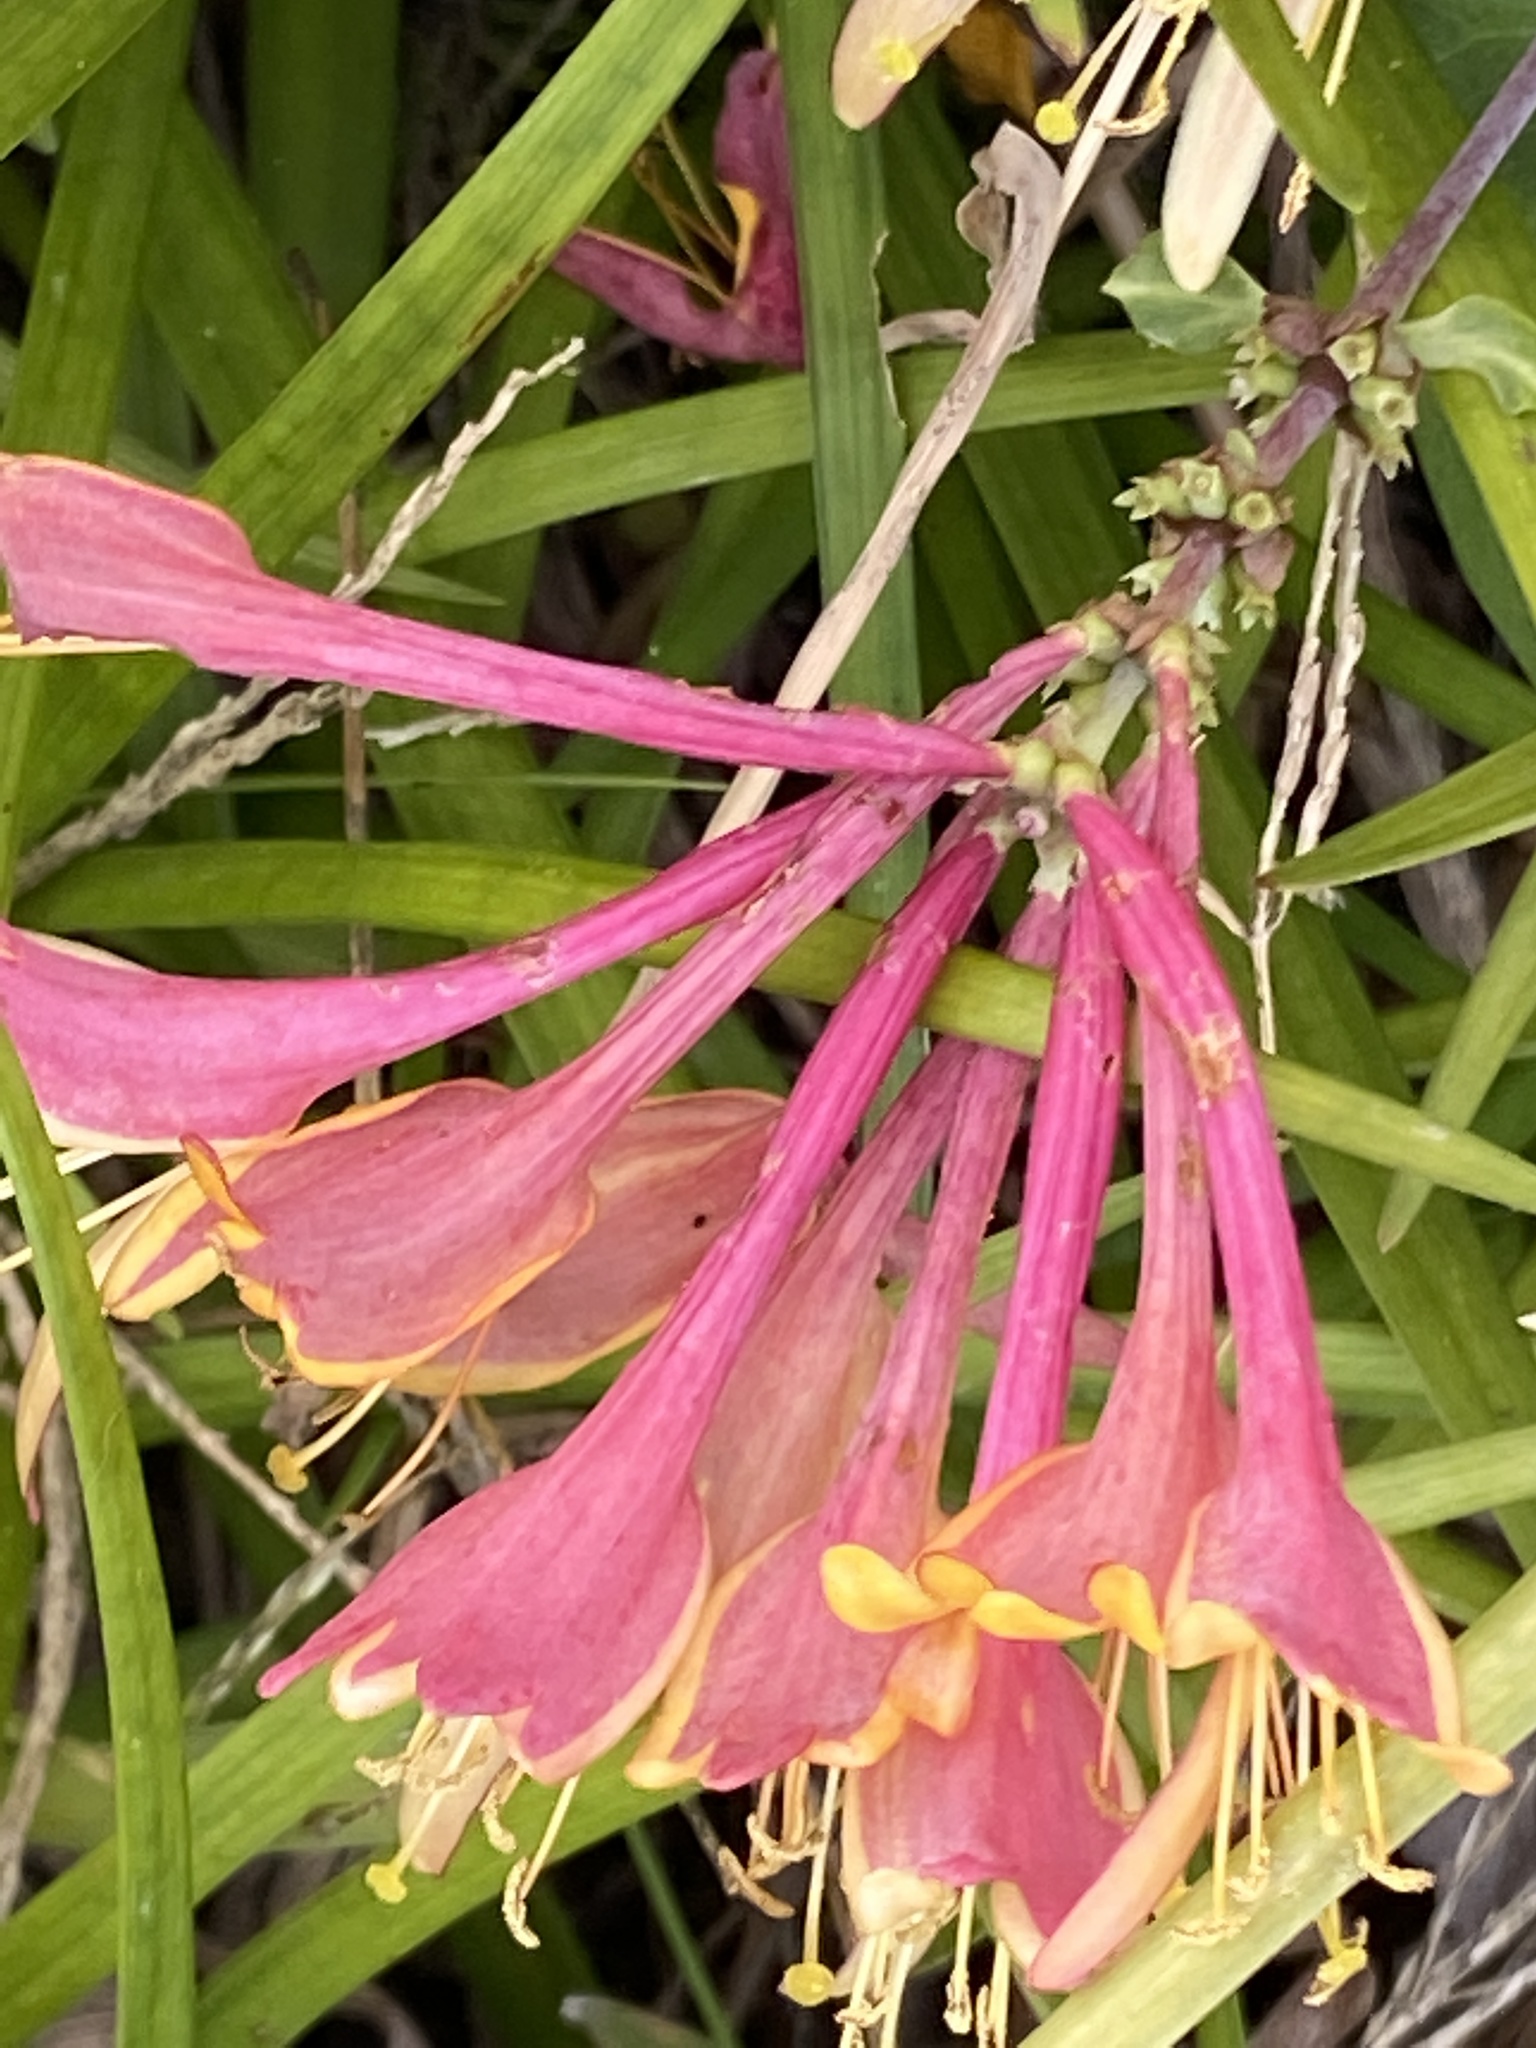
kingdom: Plantae
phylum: Tracheophyta
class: Magnoliopsida
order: Dipsacales
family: Caprifoliaceae
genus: Lonicera
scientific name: Lonicera sempervirens
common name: Coral honeysuckle
